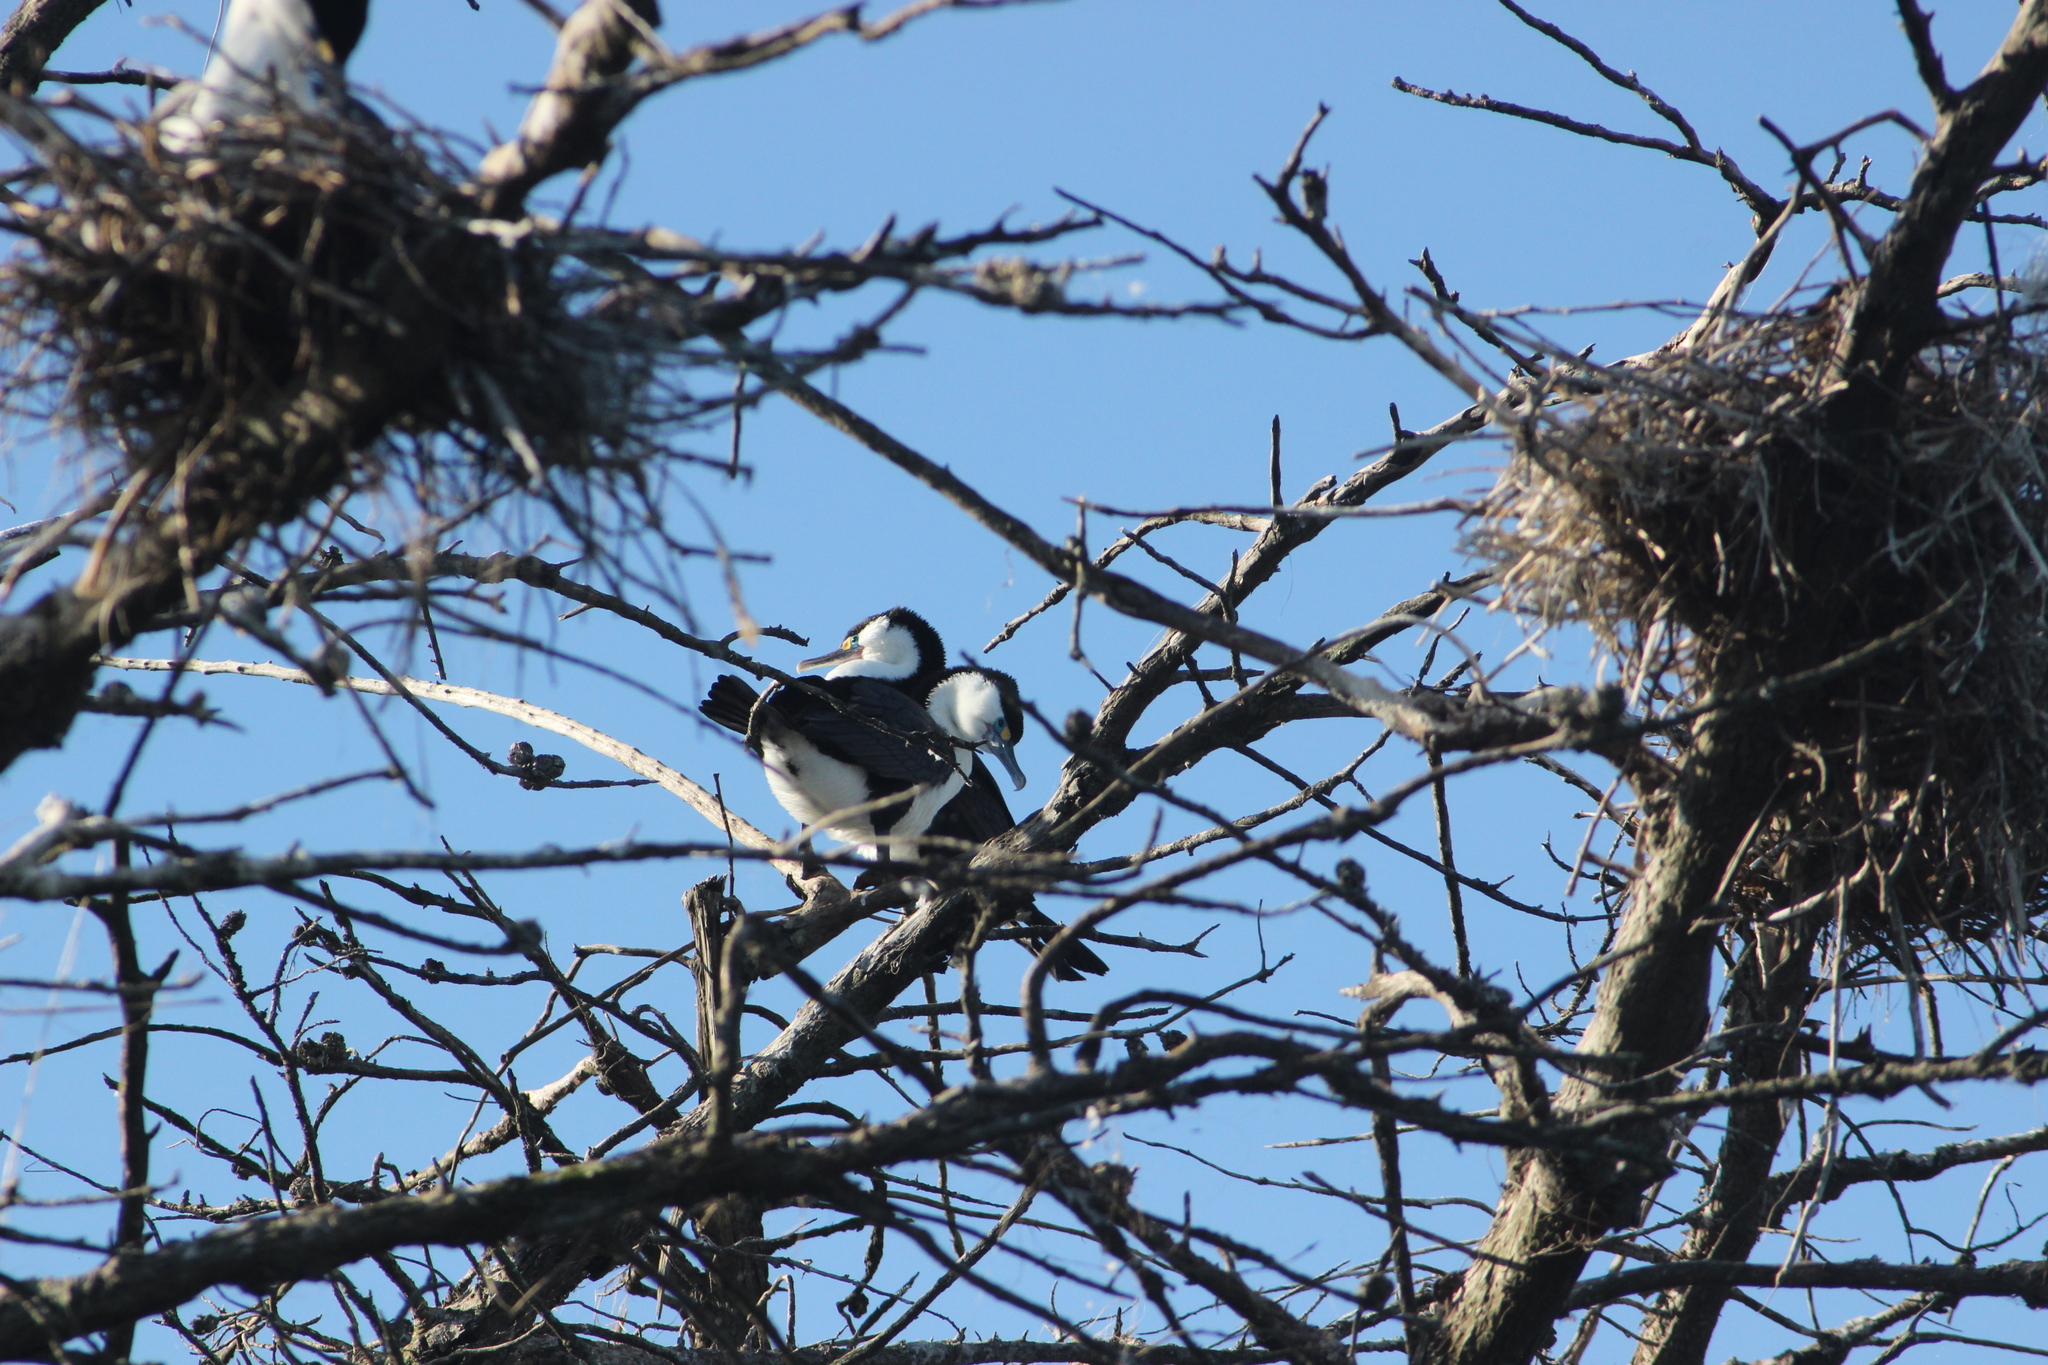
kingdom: Animalia
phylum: Chordata
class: Aves
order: Suliformes
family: Phalacrocoracidae
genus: Phalacrocorax
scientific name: Phalacrocorax varius
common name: Pied cormorant
